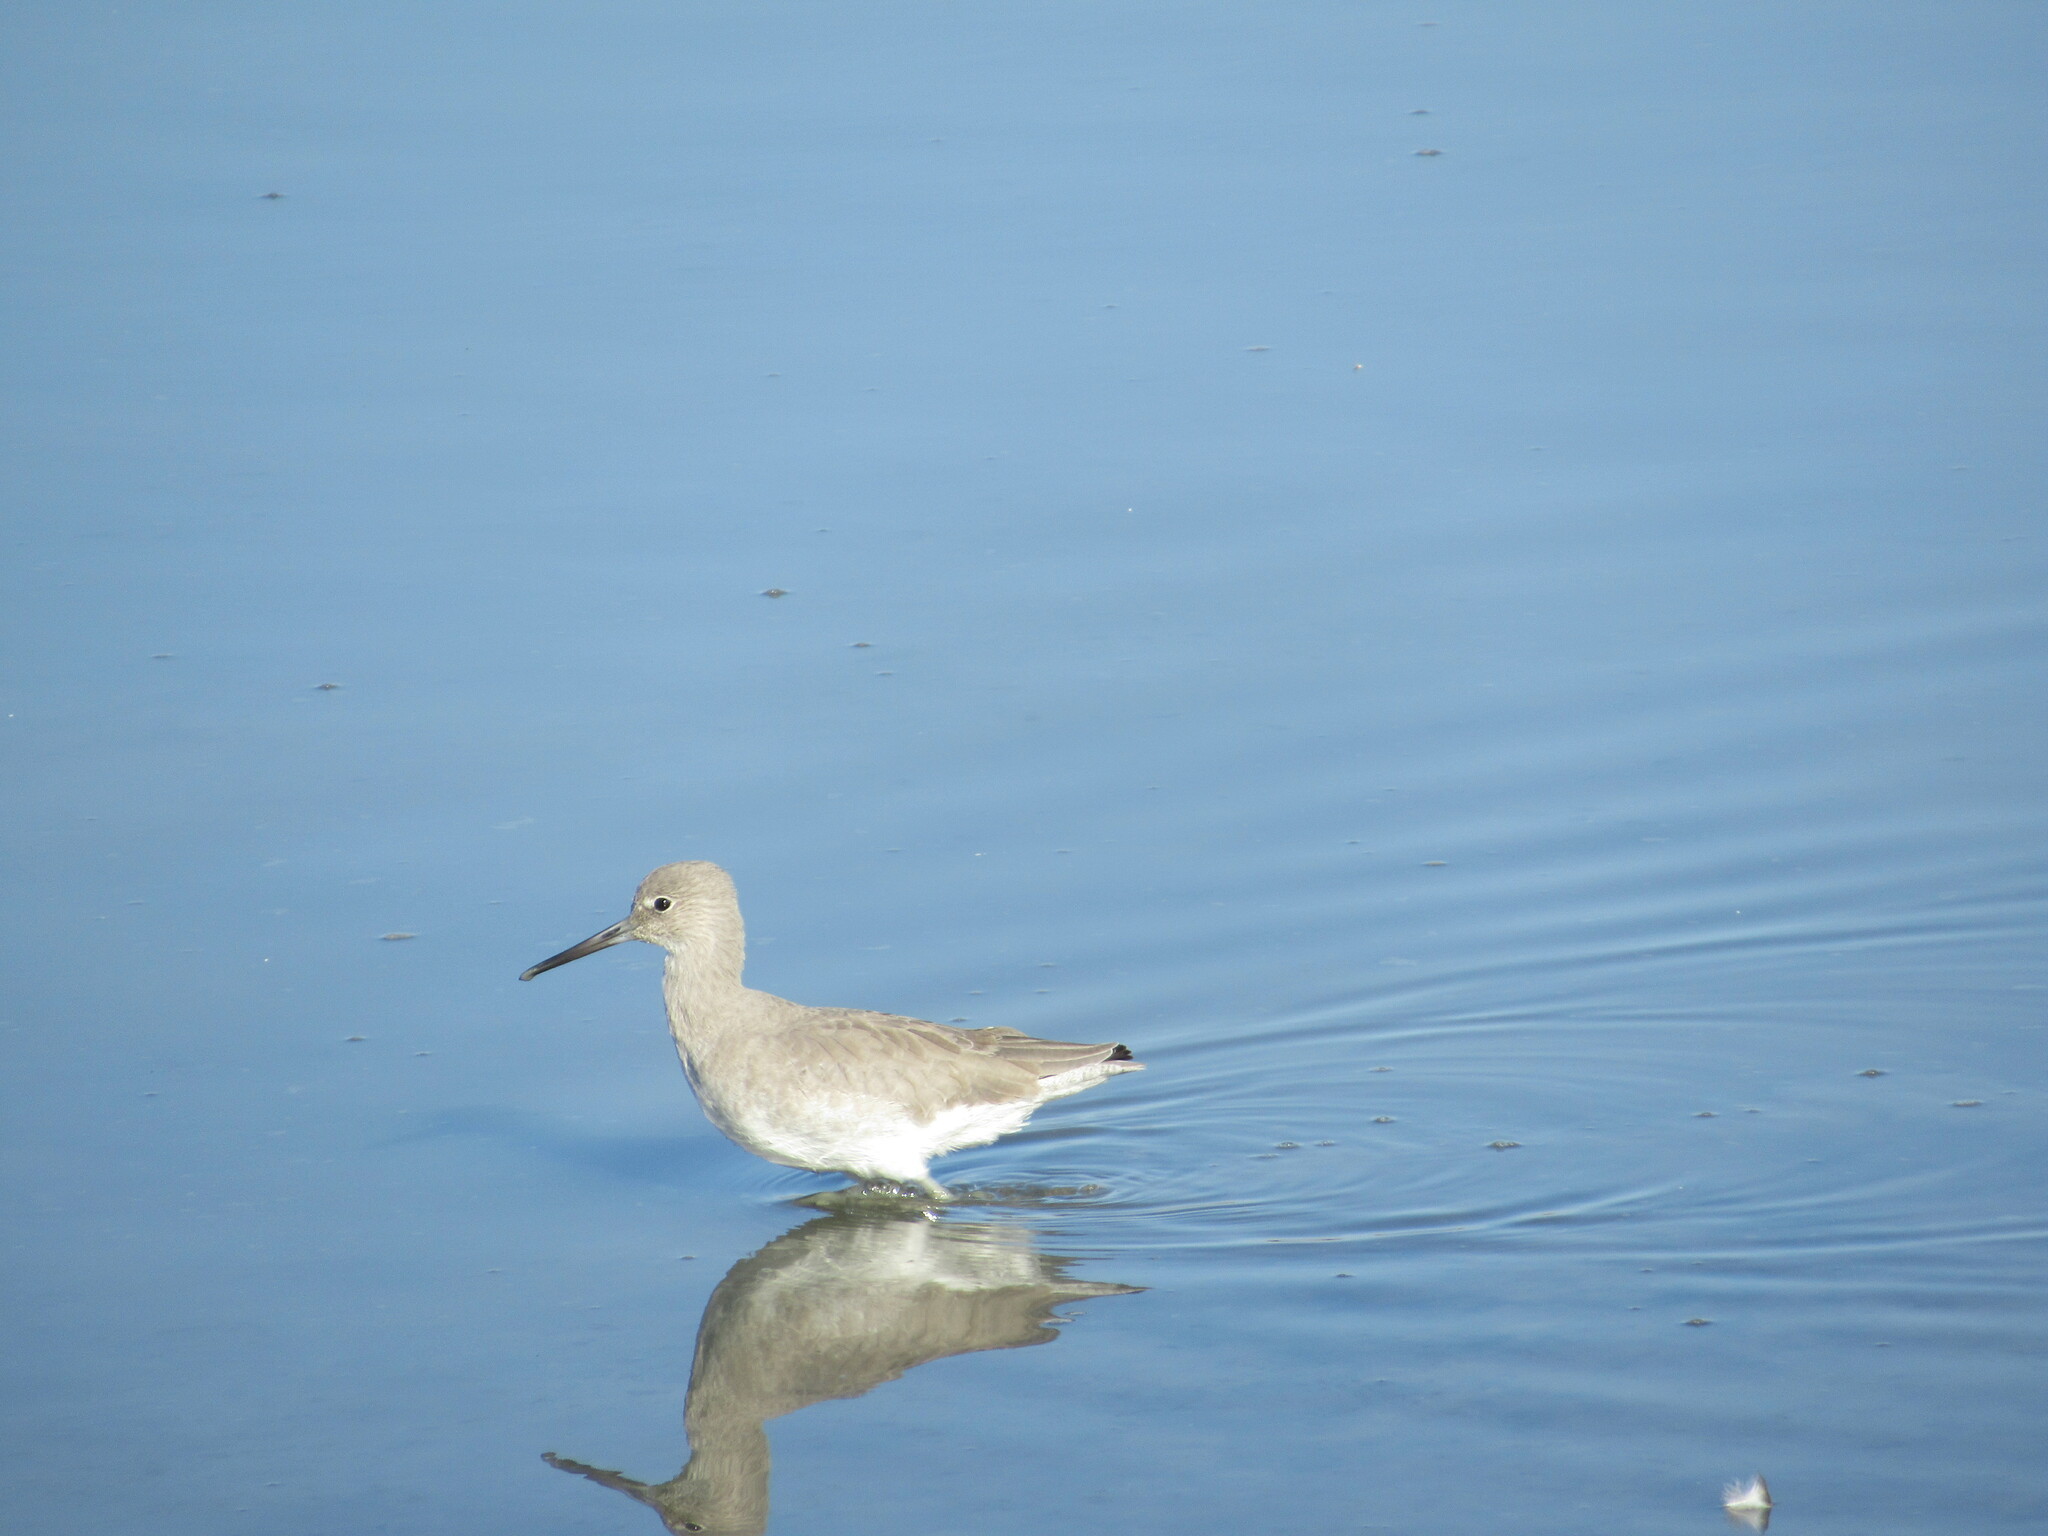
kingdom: Animalia
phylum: Chordata
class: Aves
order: Charadriiformes
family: Scolopacidae
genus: Tringa
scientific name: Tringa semipalmata
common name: Willet
